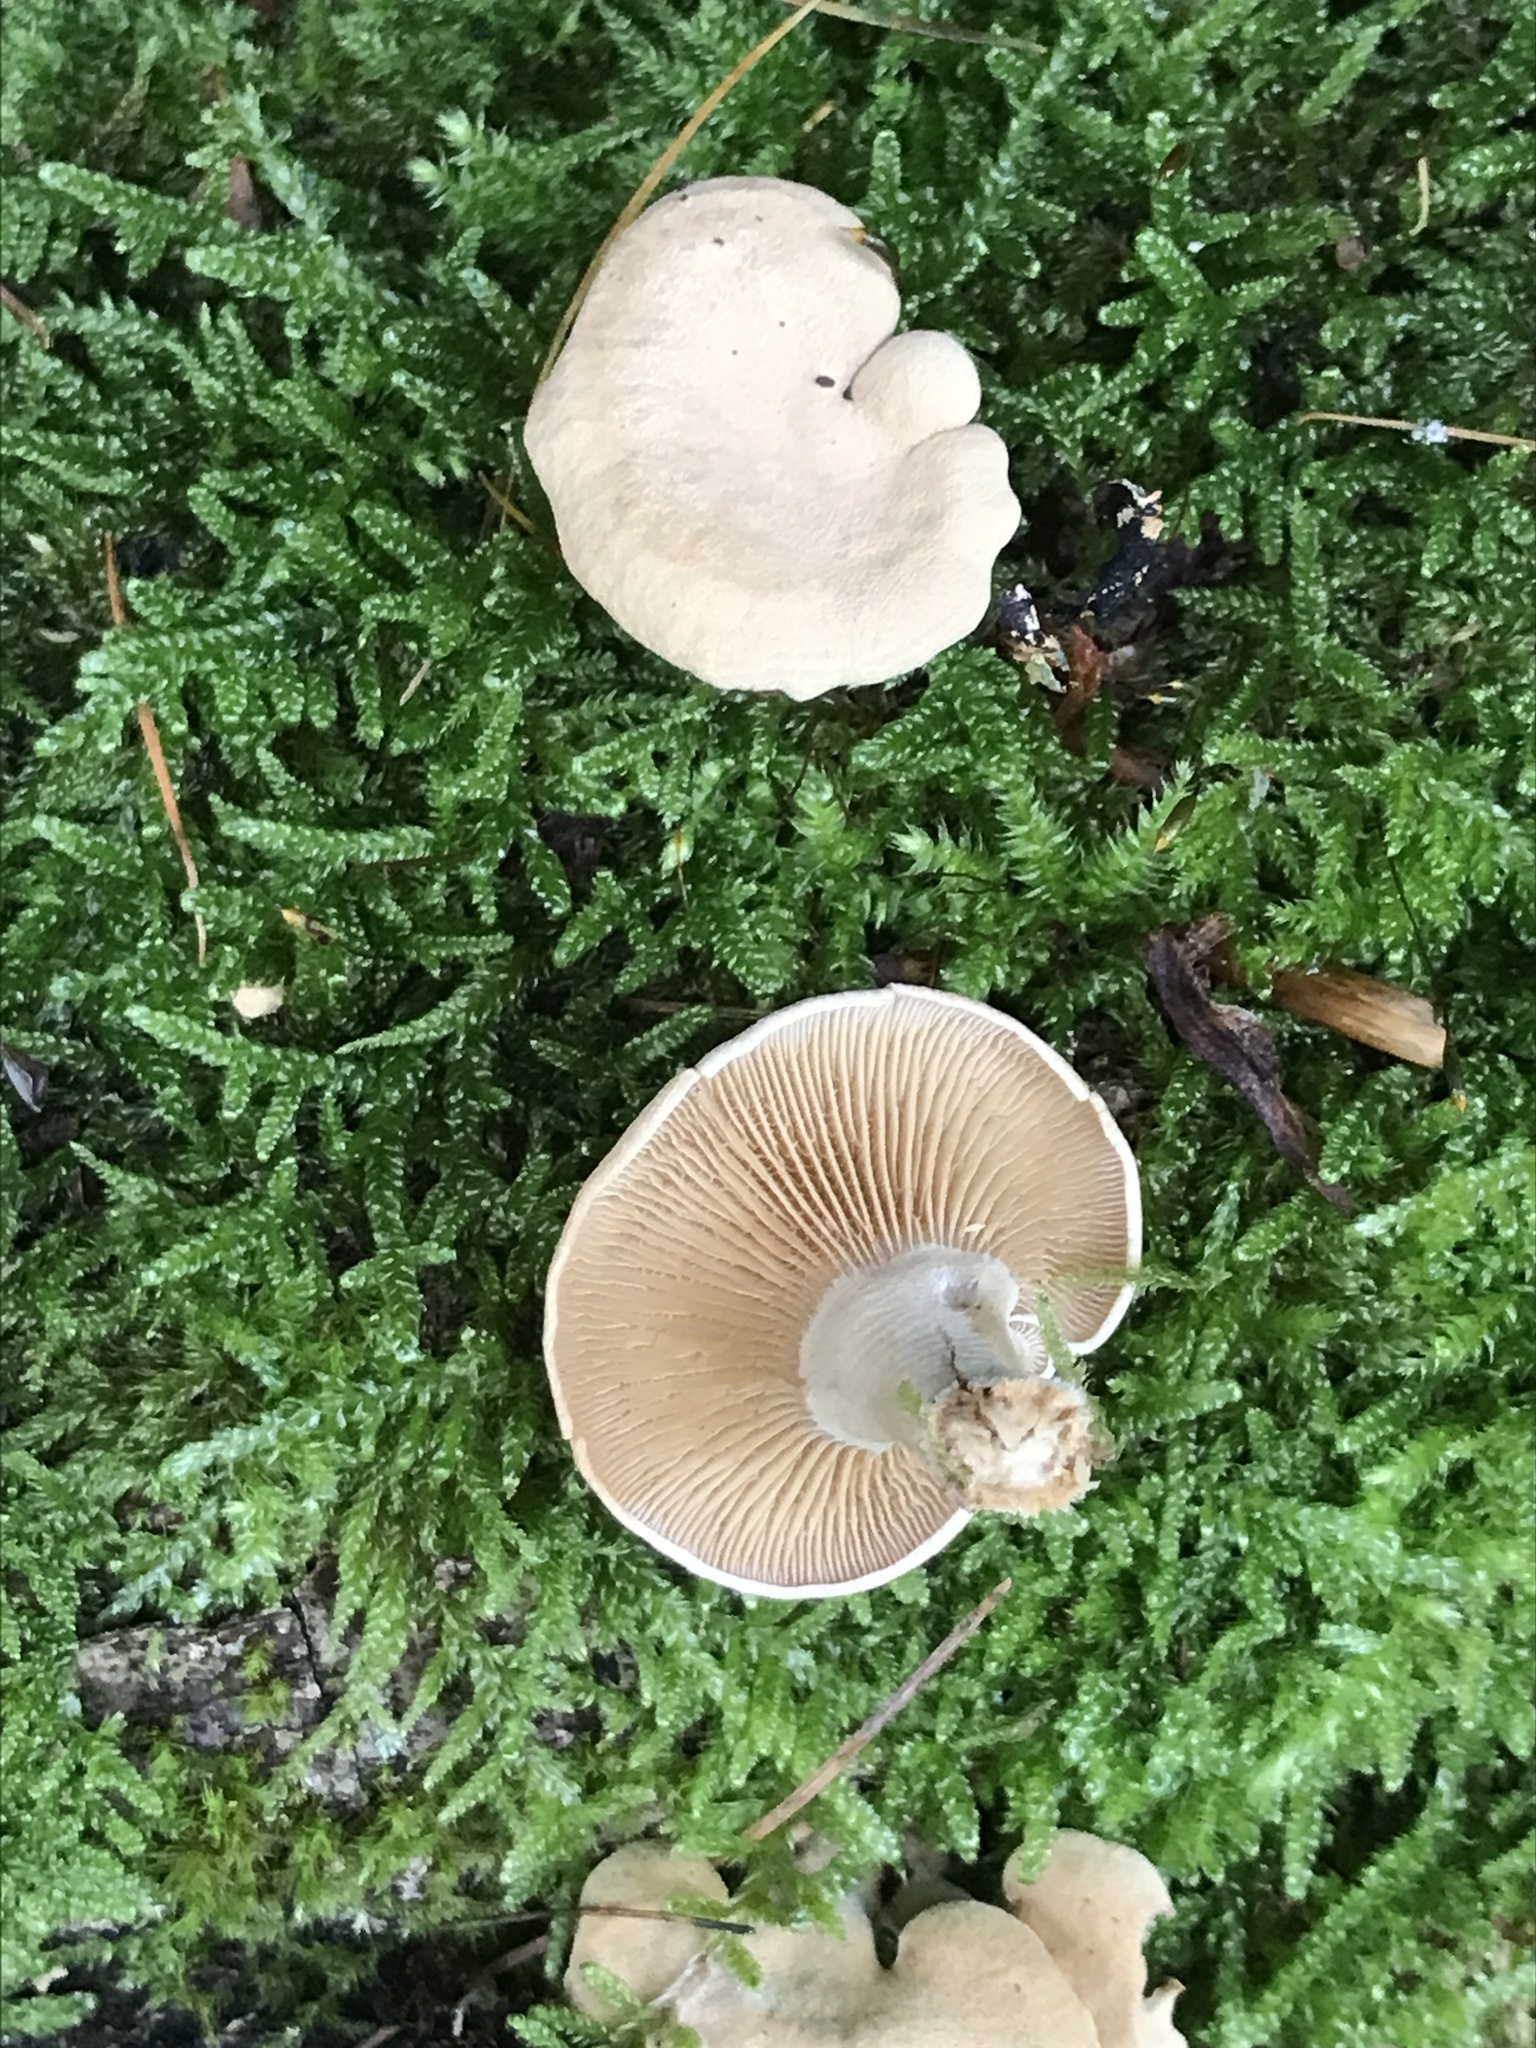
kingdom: Fungi
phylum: Basidiomycota
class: Agaricomycetes
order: Agaricales
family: Mycenaceae
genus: Panellus
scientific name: Panellus stipticus
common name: Bitter oysterling
